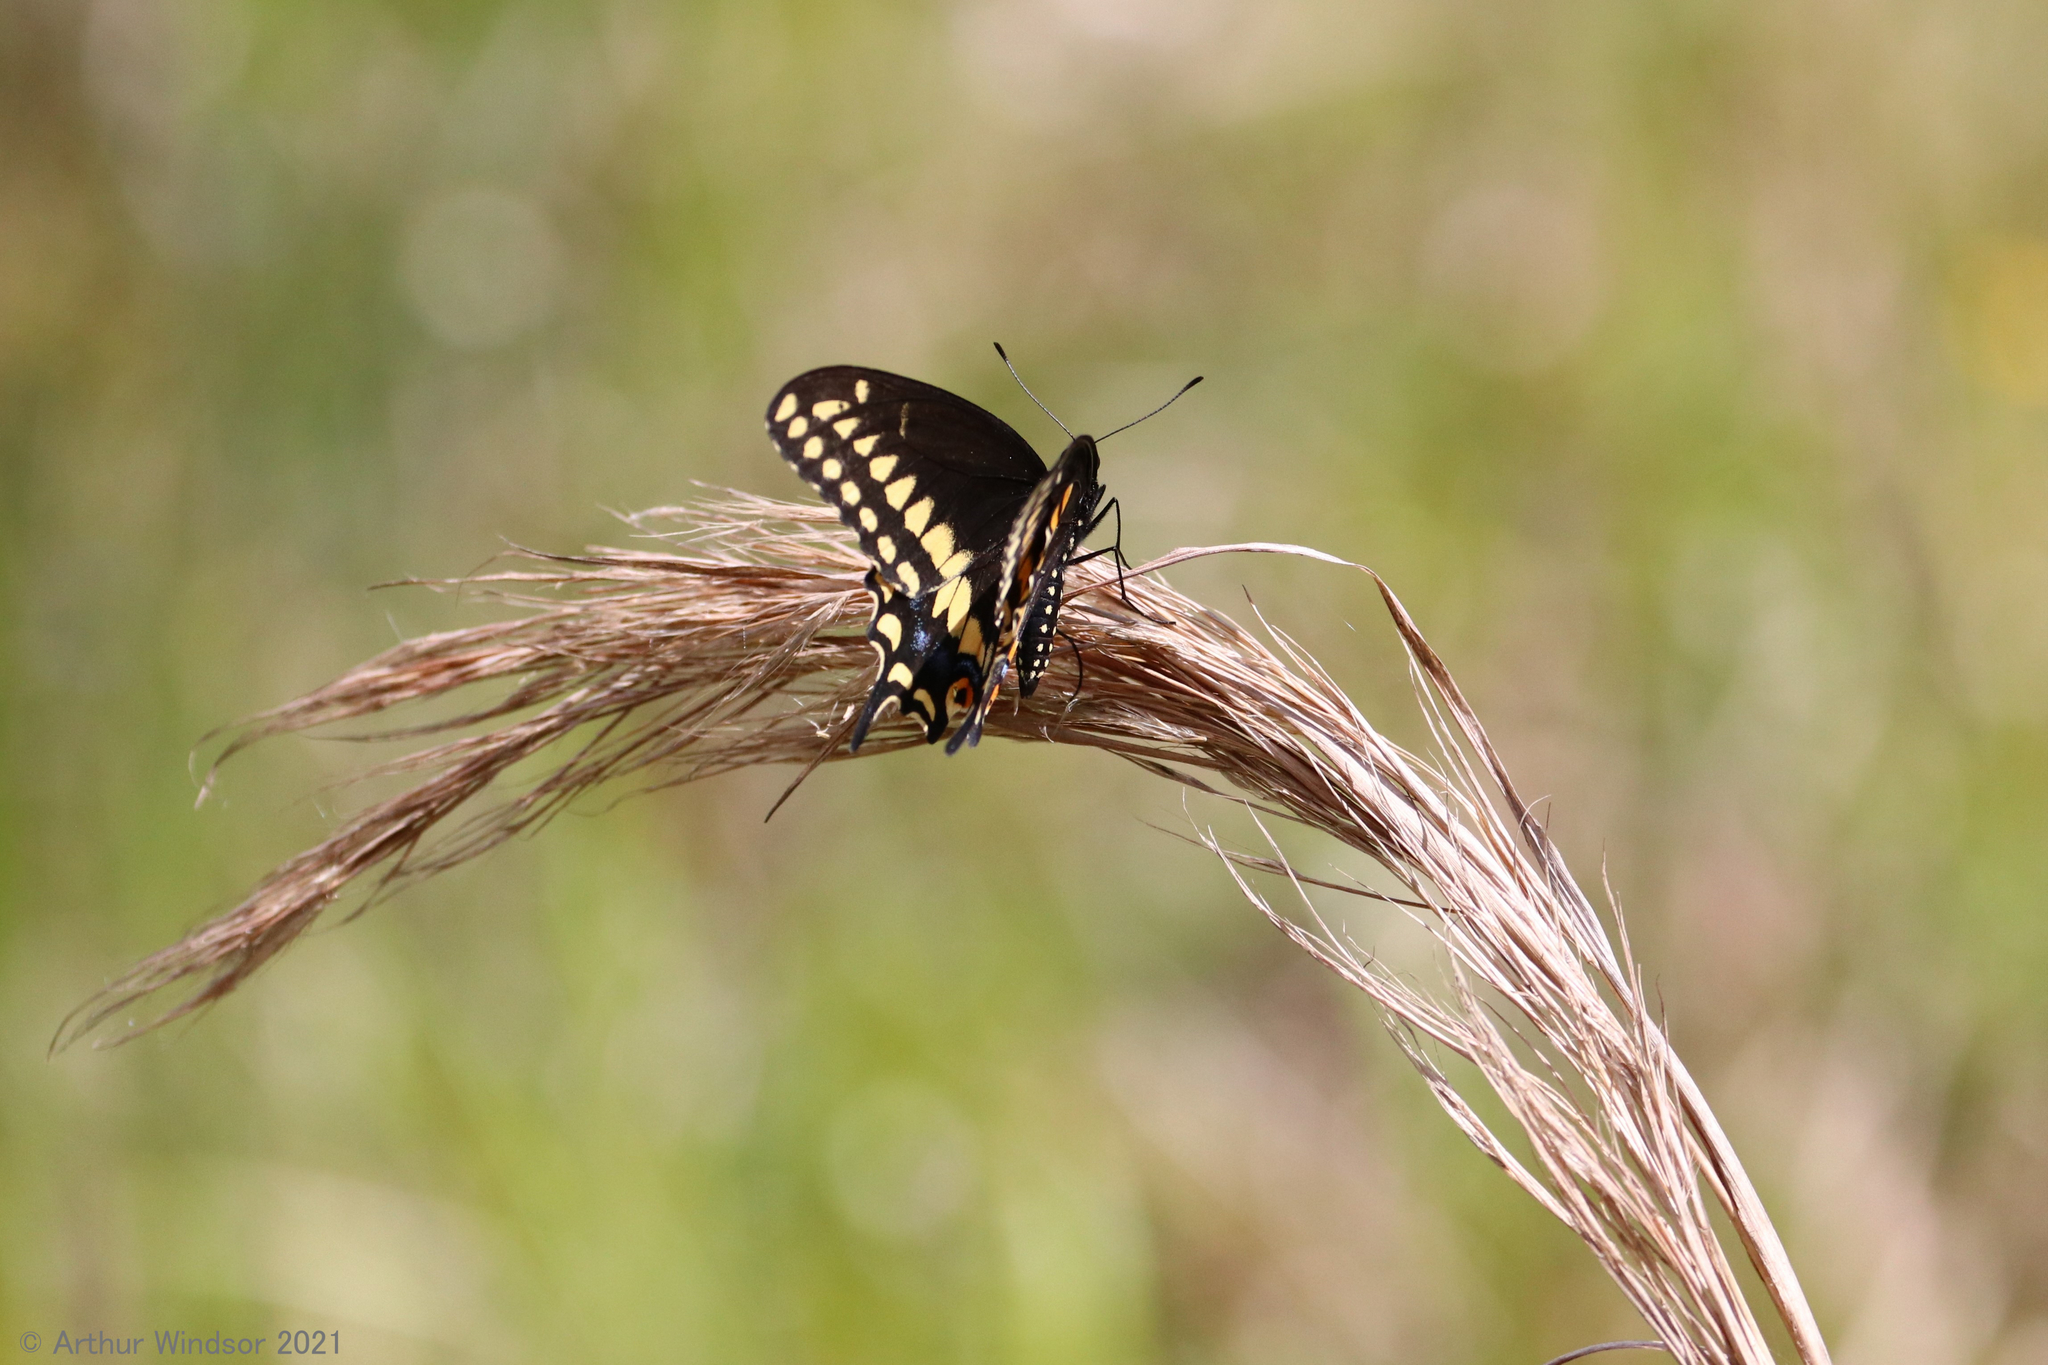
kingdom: Animalia
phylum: Arthropoda
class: Insecta
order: Lepidoptera
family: Papilionidae
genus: Papilio
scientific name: Papilio polyxenes
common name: Black swallowtail
